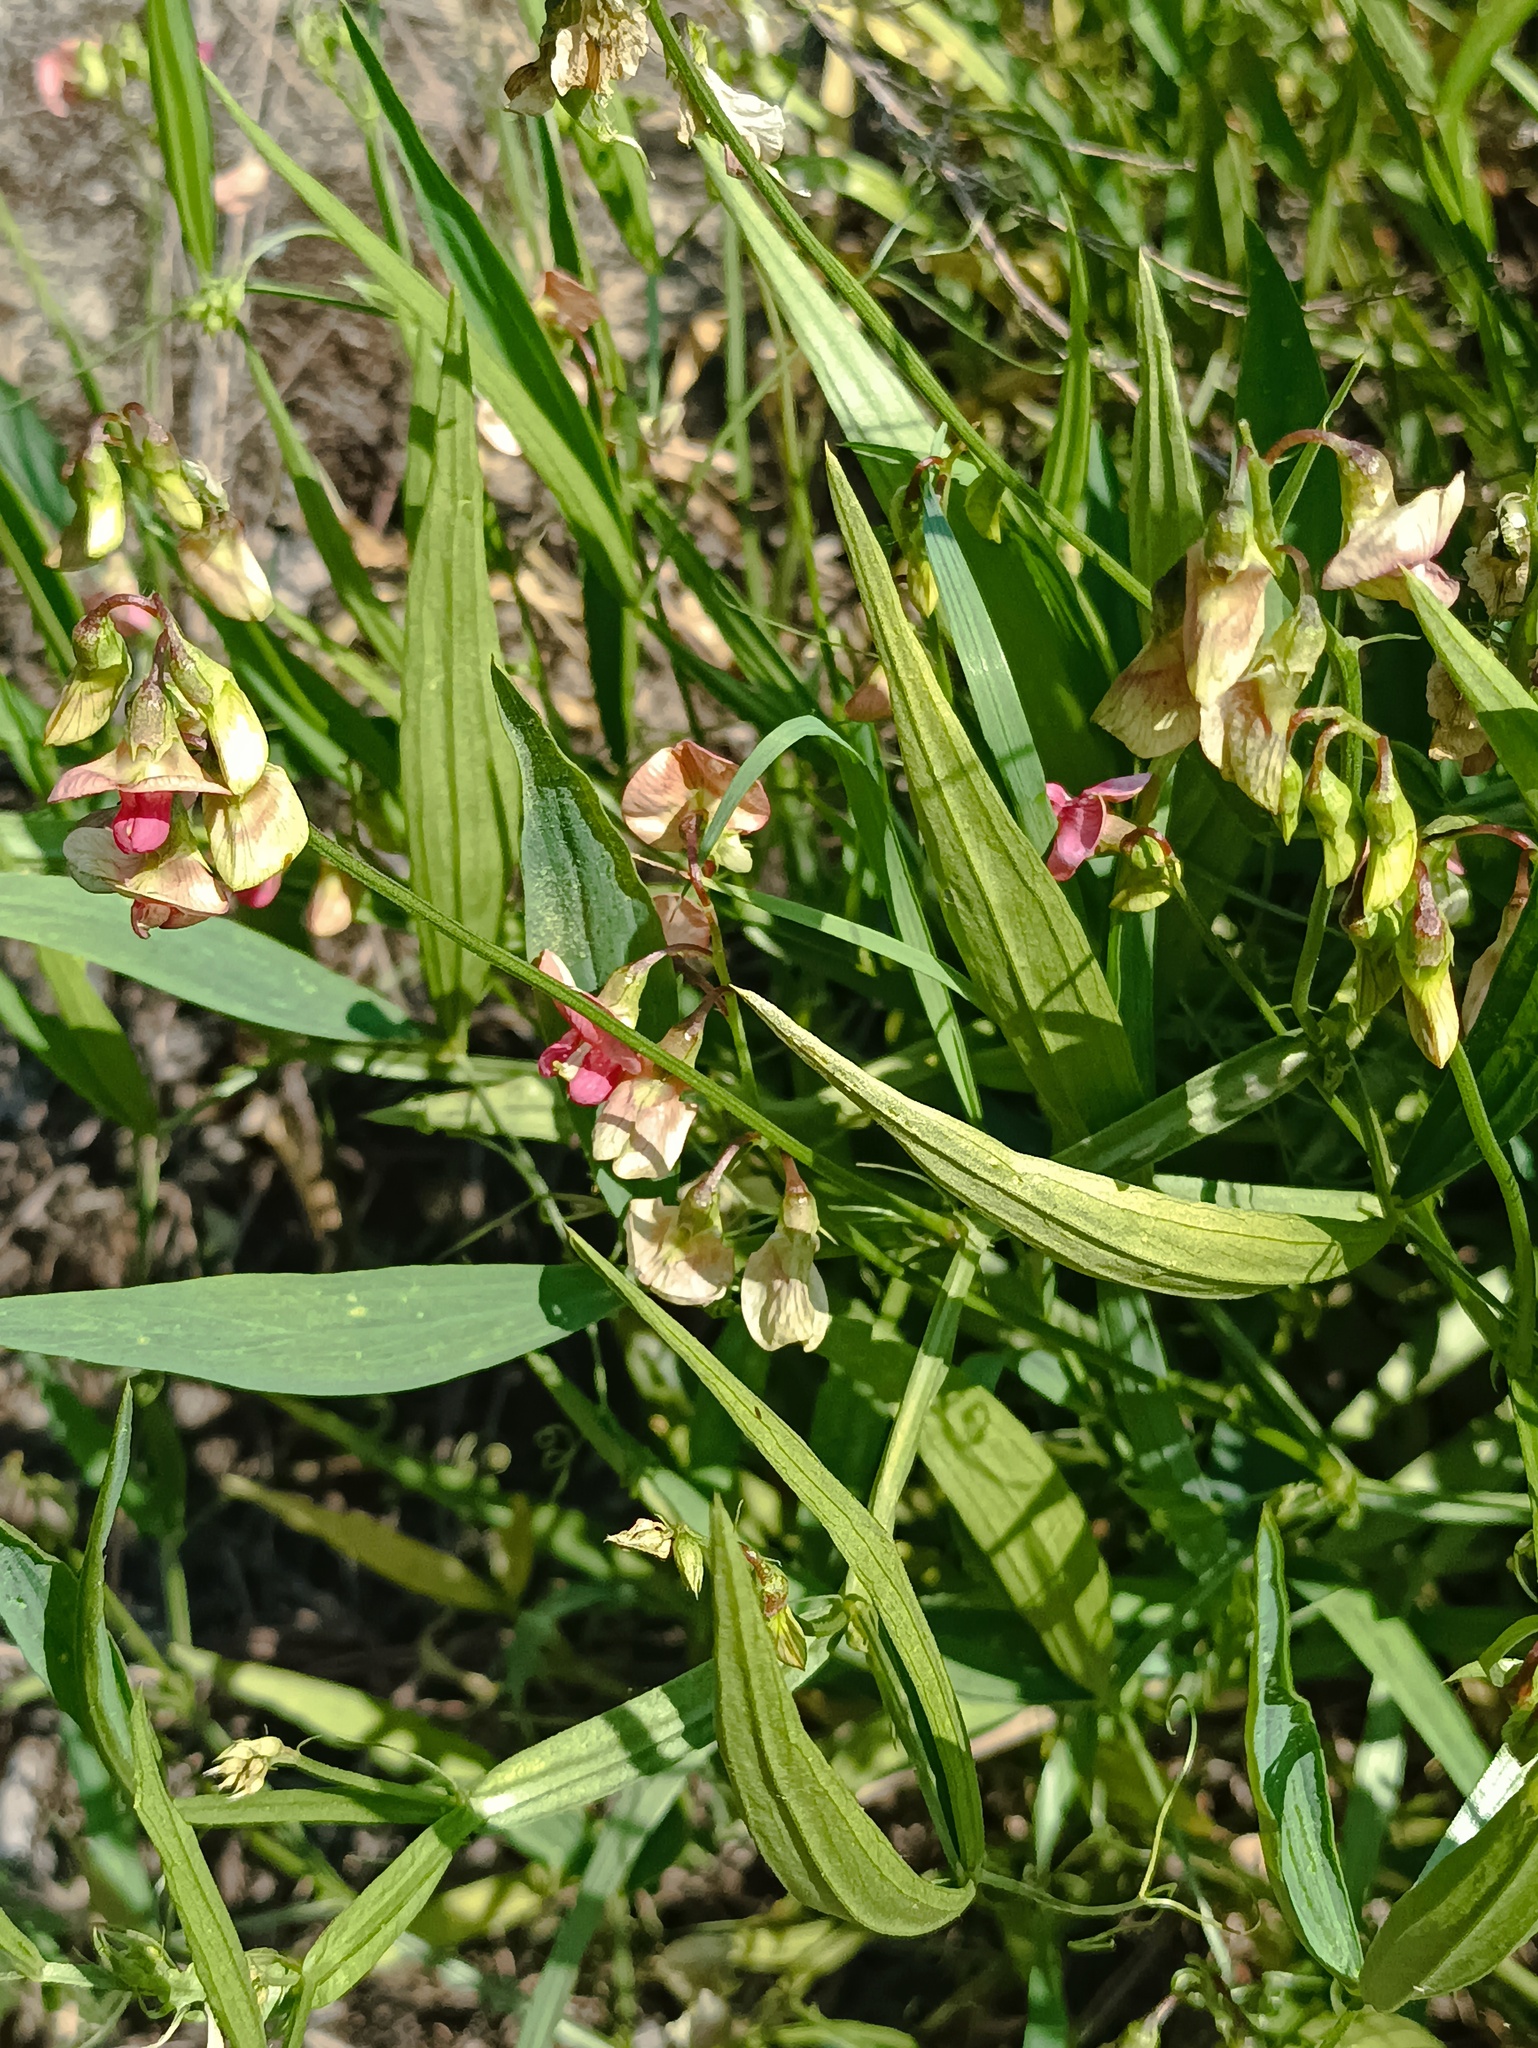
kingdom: Plantae
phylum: Tracheophyta
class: Magnoliopsida
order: Fabales
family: Fabaceae
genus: Lathyrus
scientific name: Lathyrus sylvestris
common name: Flat pea
